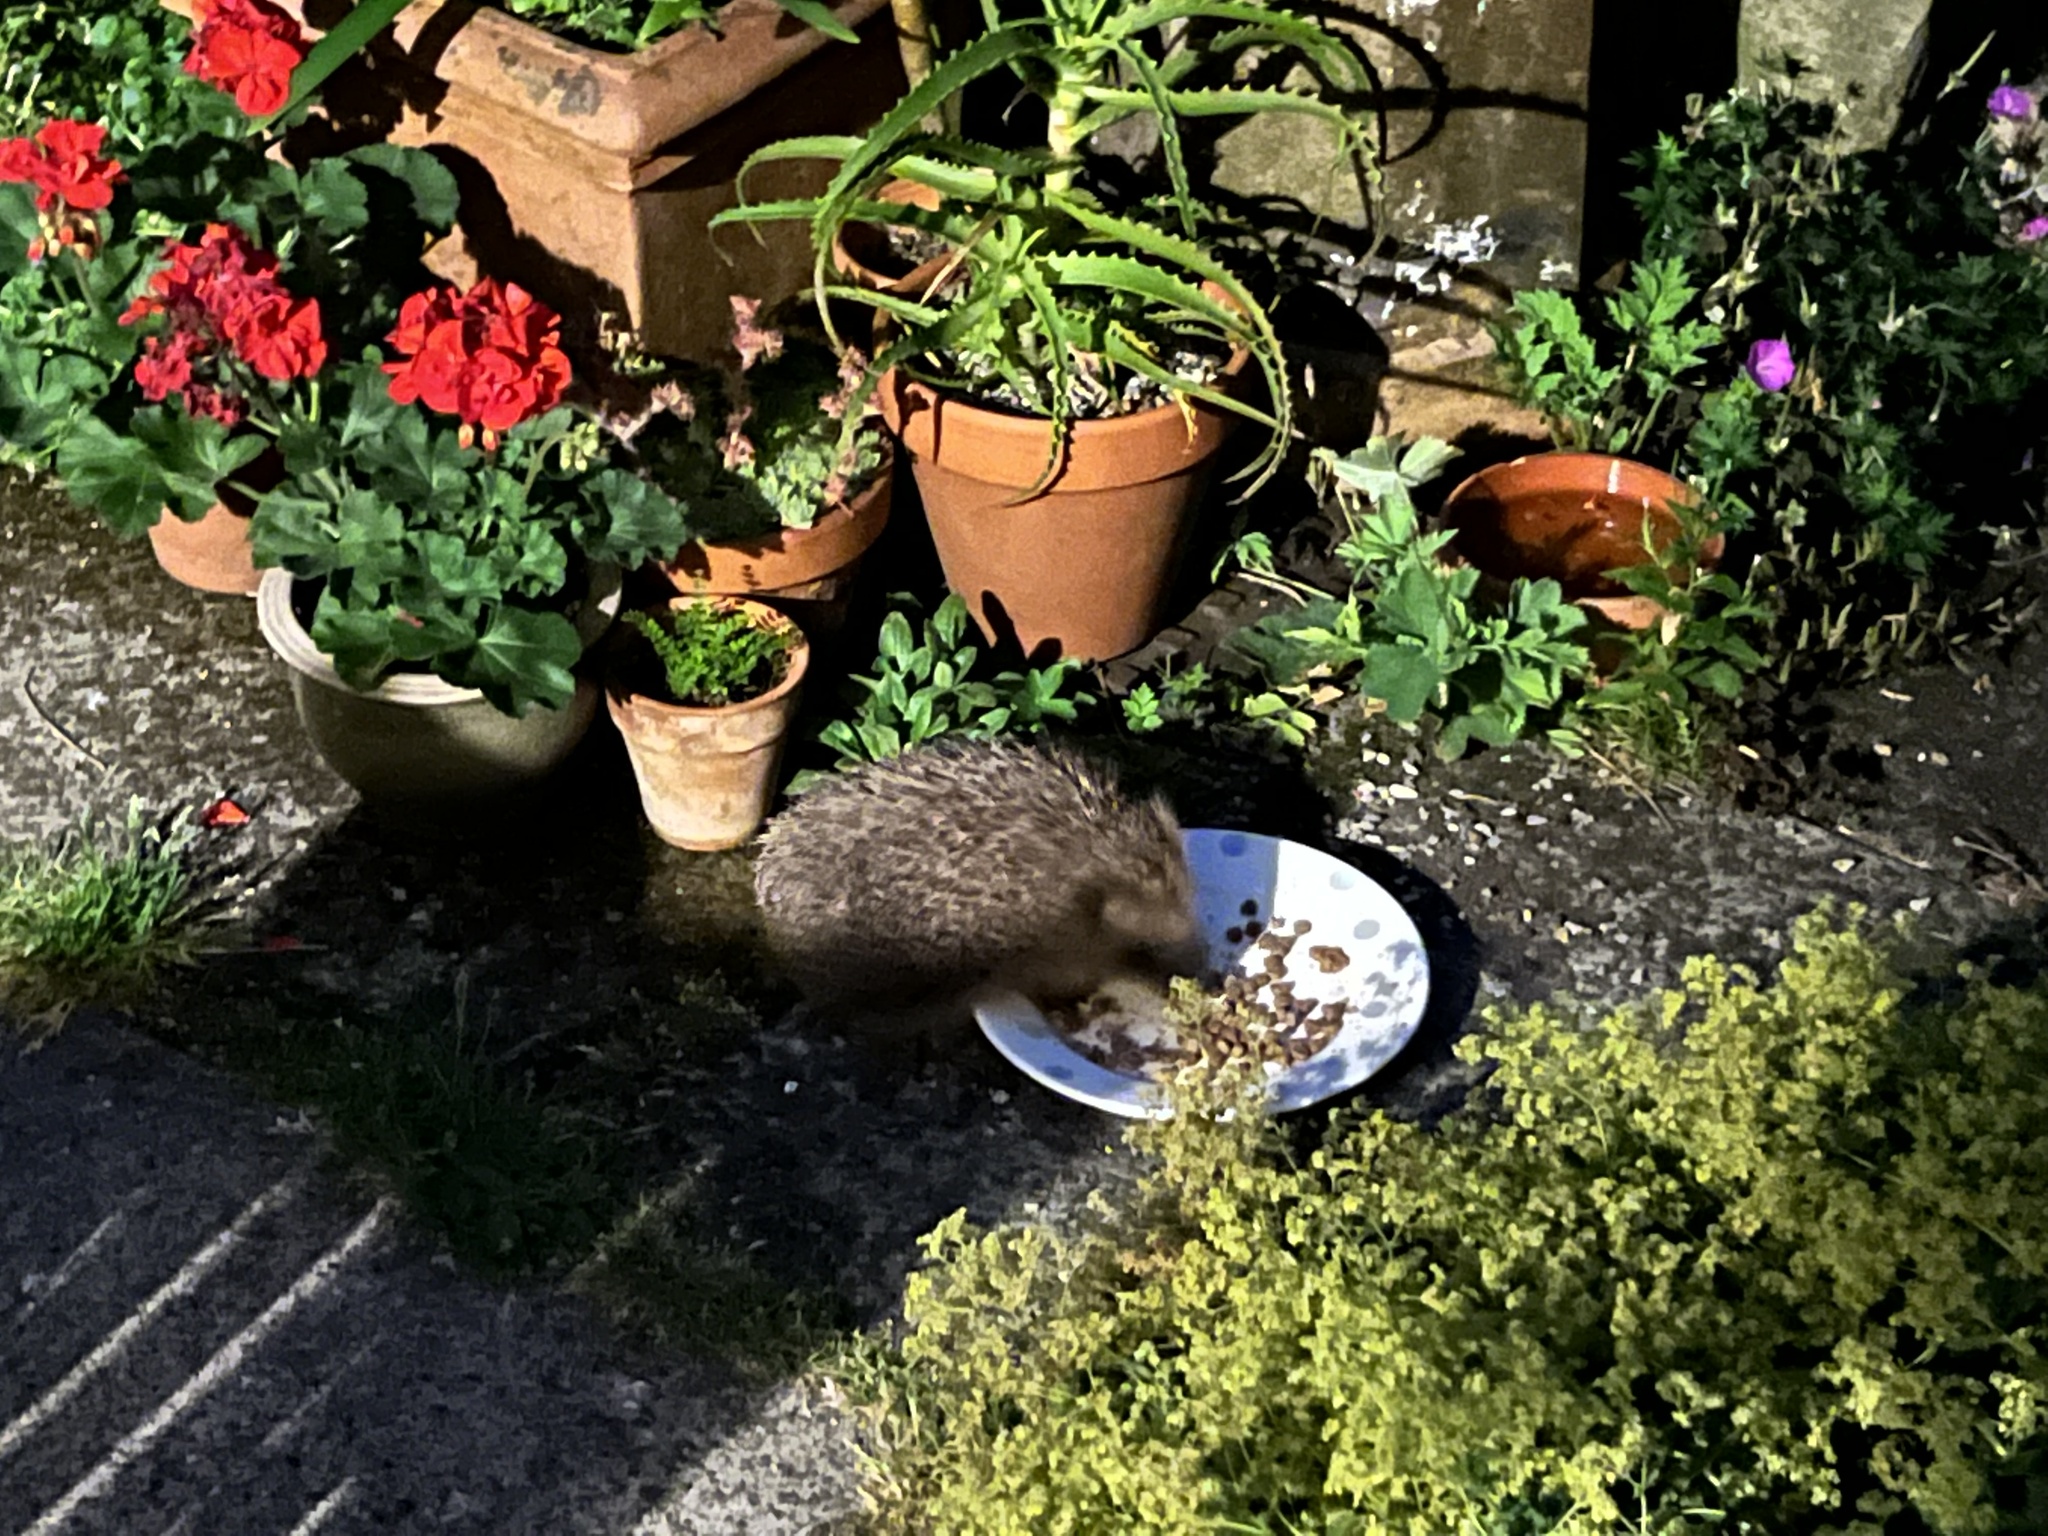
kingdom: Animalia
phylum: Chordata
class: Mammalia
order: Erinaceomorpha
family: Erinaceidae
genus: Erinaceus
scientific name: Erinaceus europaeus
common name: West european hedgehog
